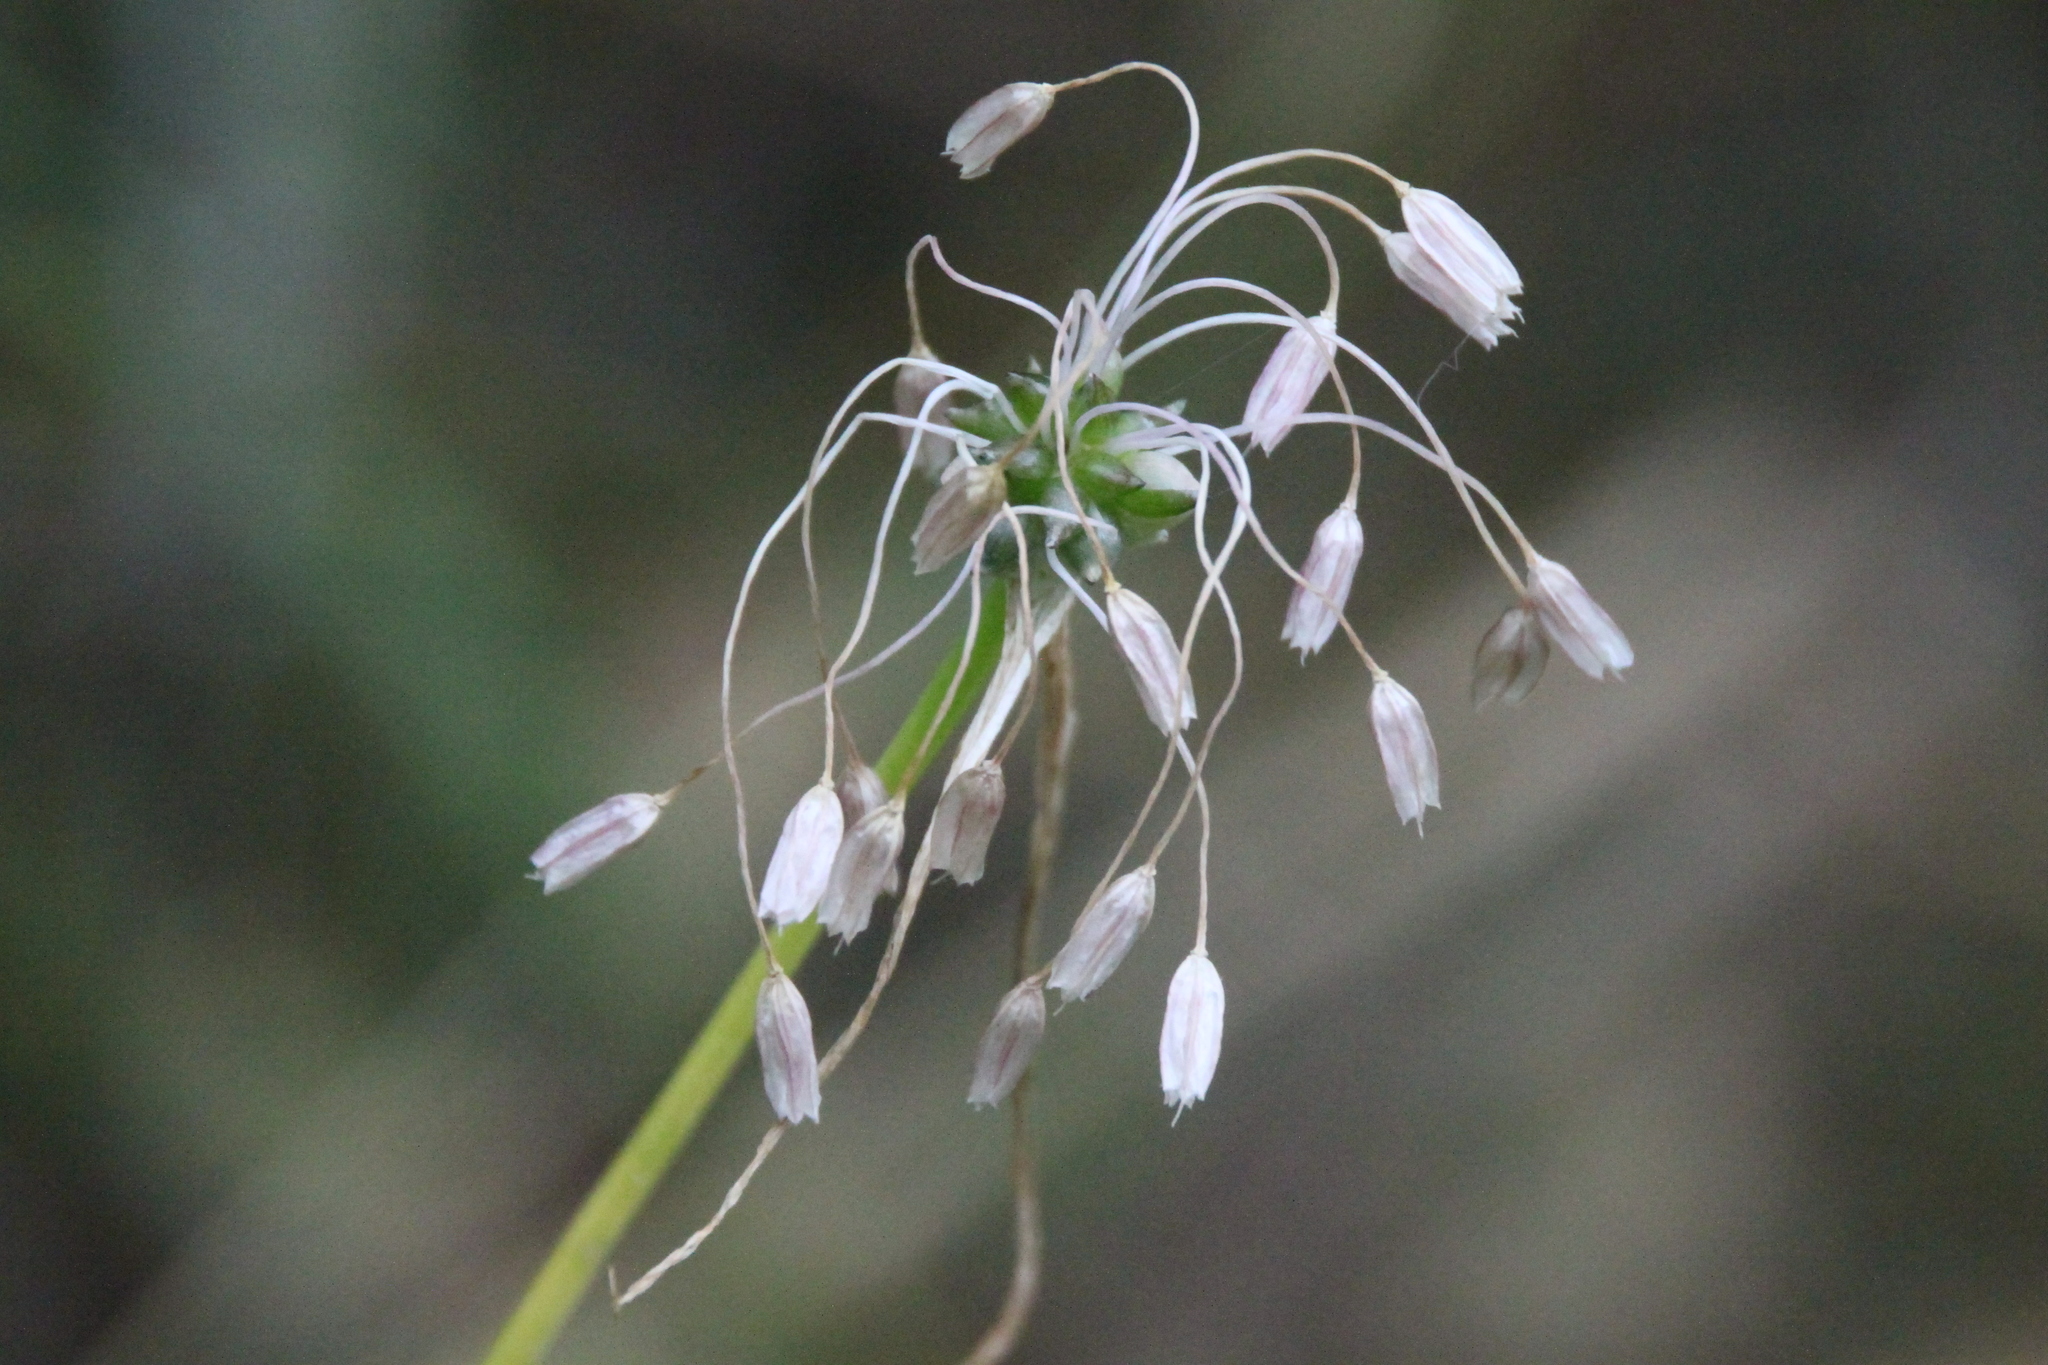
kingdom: Plantae
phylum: Tracheophyta
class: Liliopsida
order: Asparagales
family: Amaryllidaceae
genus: Allium
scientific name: Allium oleraceum
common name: Field garlic
